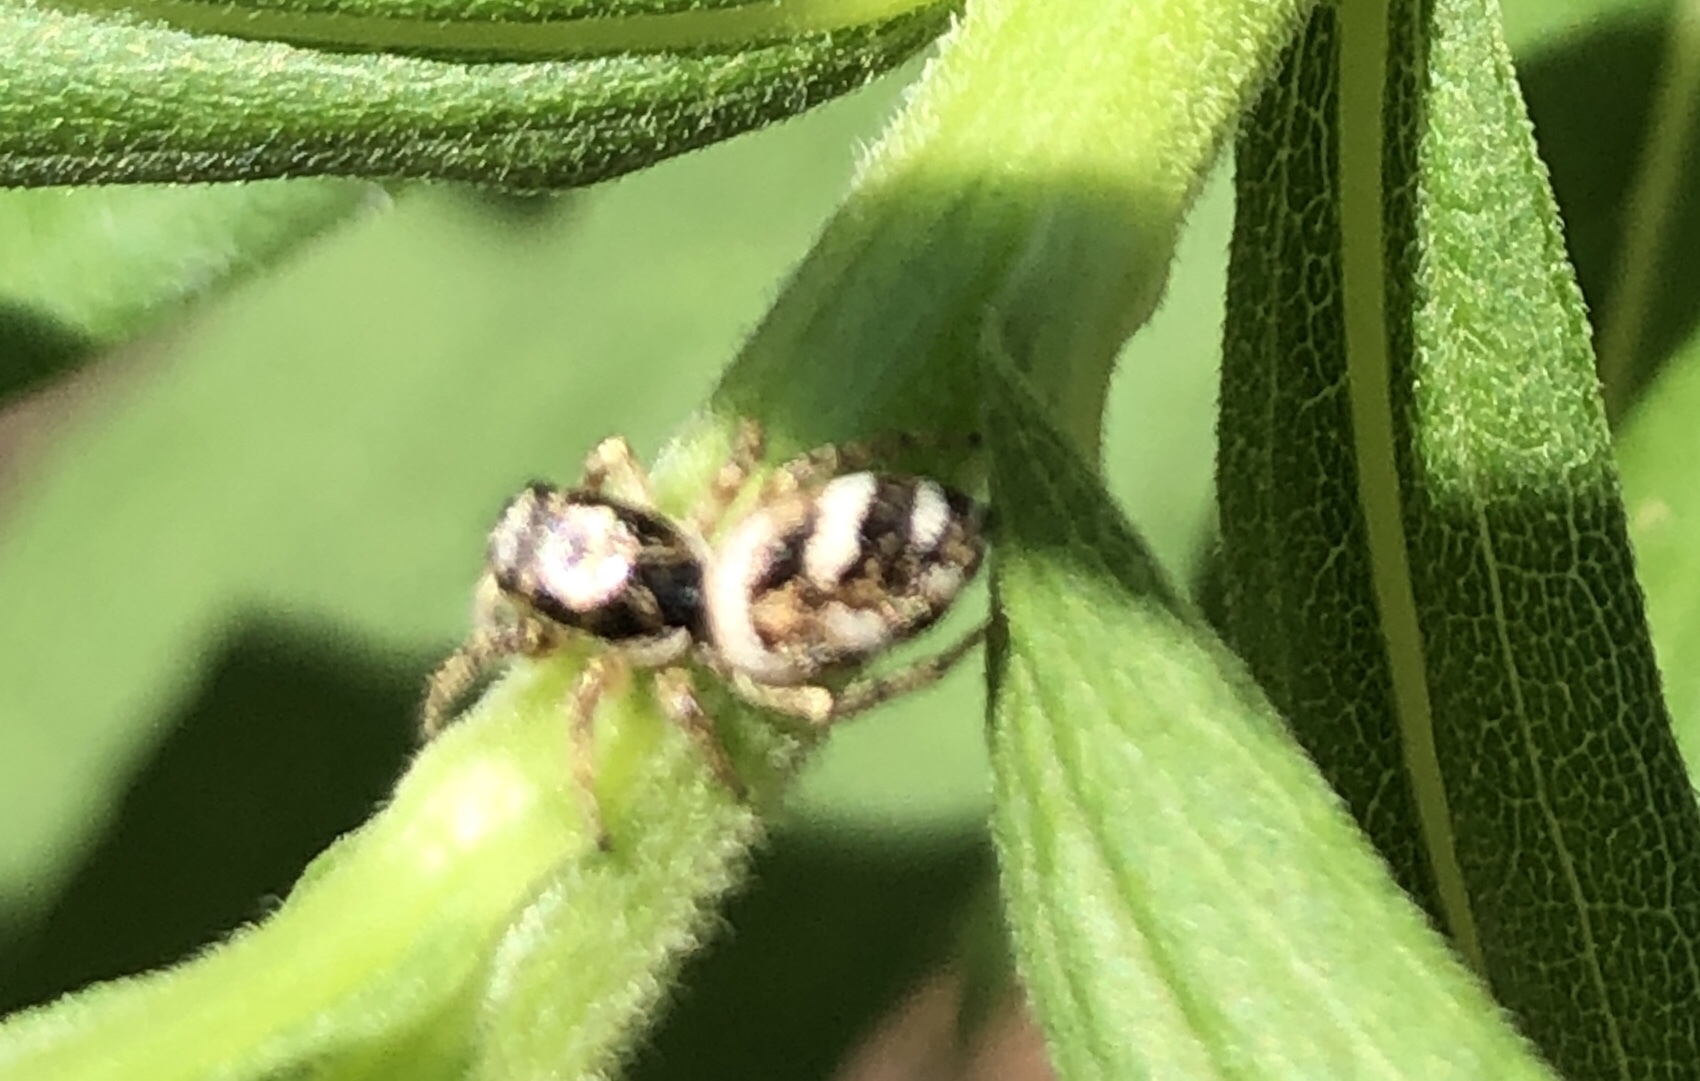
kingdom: Animalia
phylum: Arthropoda
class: Arachnida
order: Araneae
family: Salticidae
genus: Salticus
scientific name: Salticus scenicus
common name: Zebra jumper
